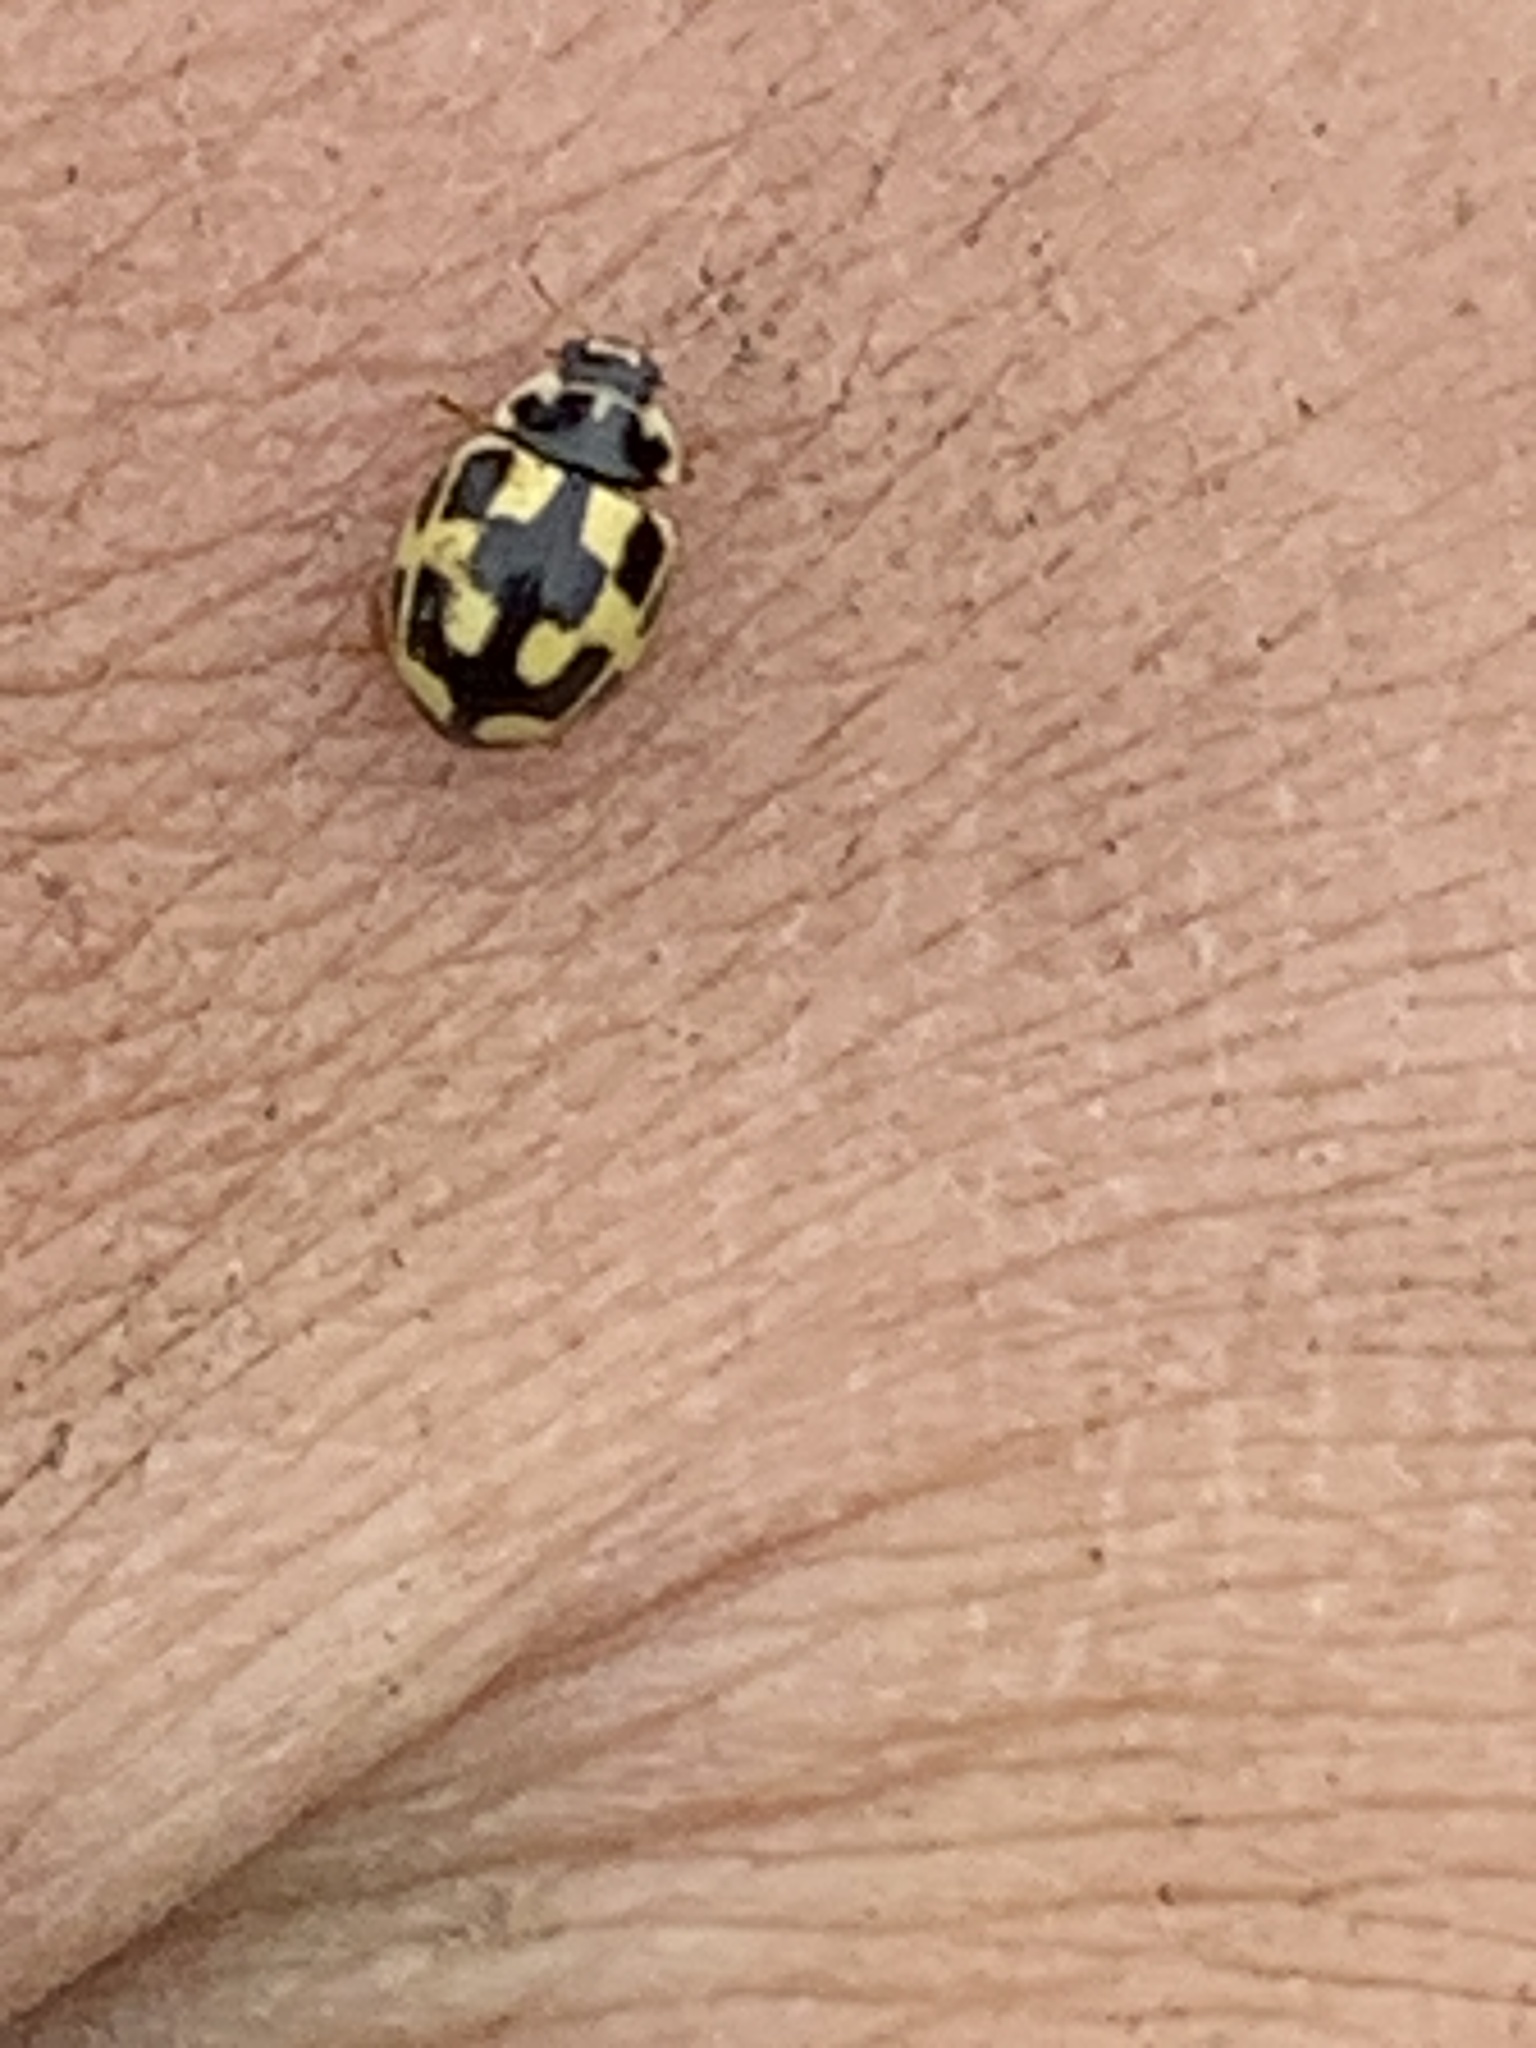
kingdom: Animalia
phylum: Arthropoda
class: Insecta
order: Coleoptera
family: Coccinellidae
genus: Propylaea
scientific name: Propylaea quatuordecimpunctata
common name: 14-spotted ladybird beetle
